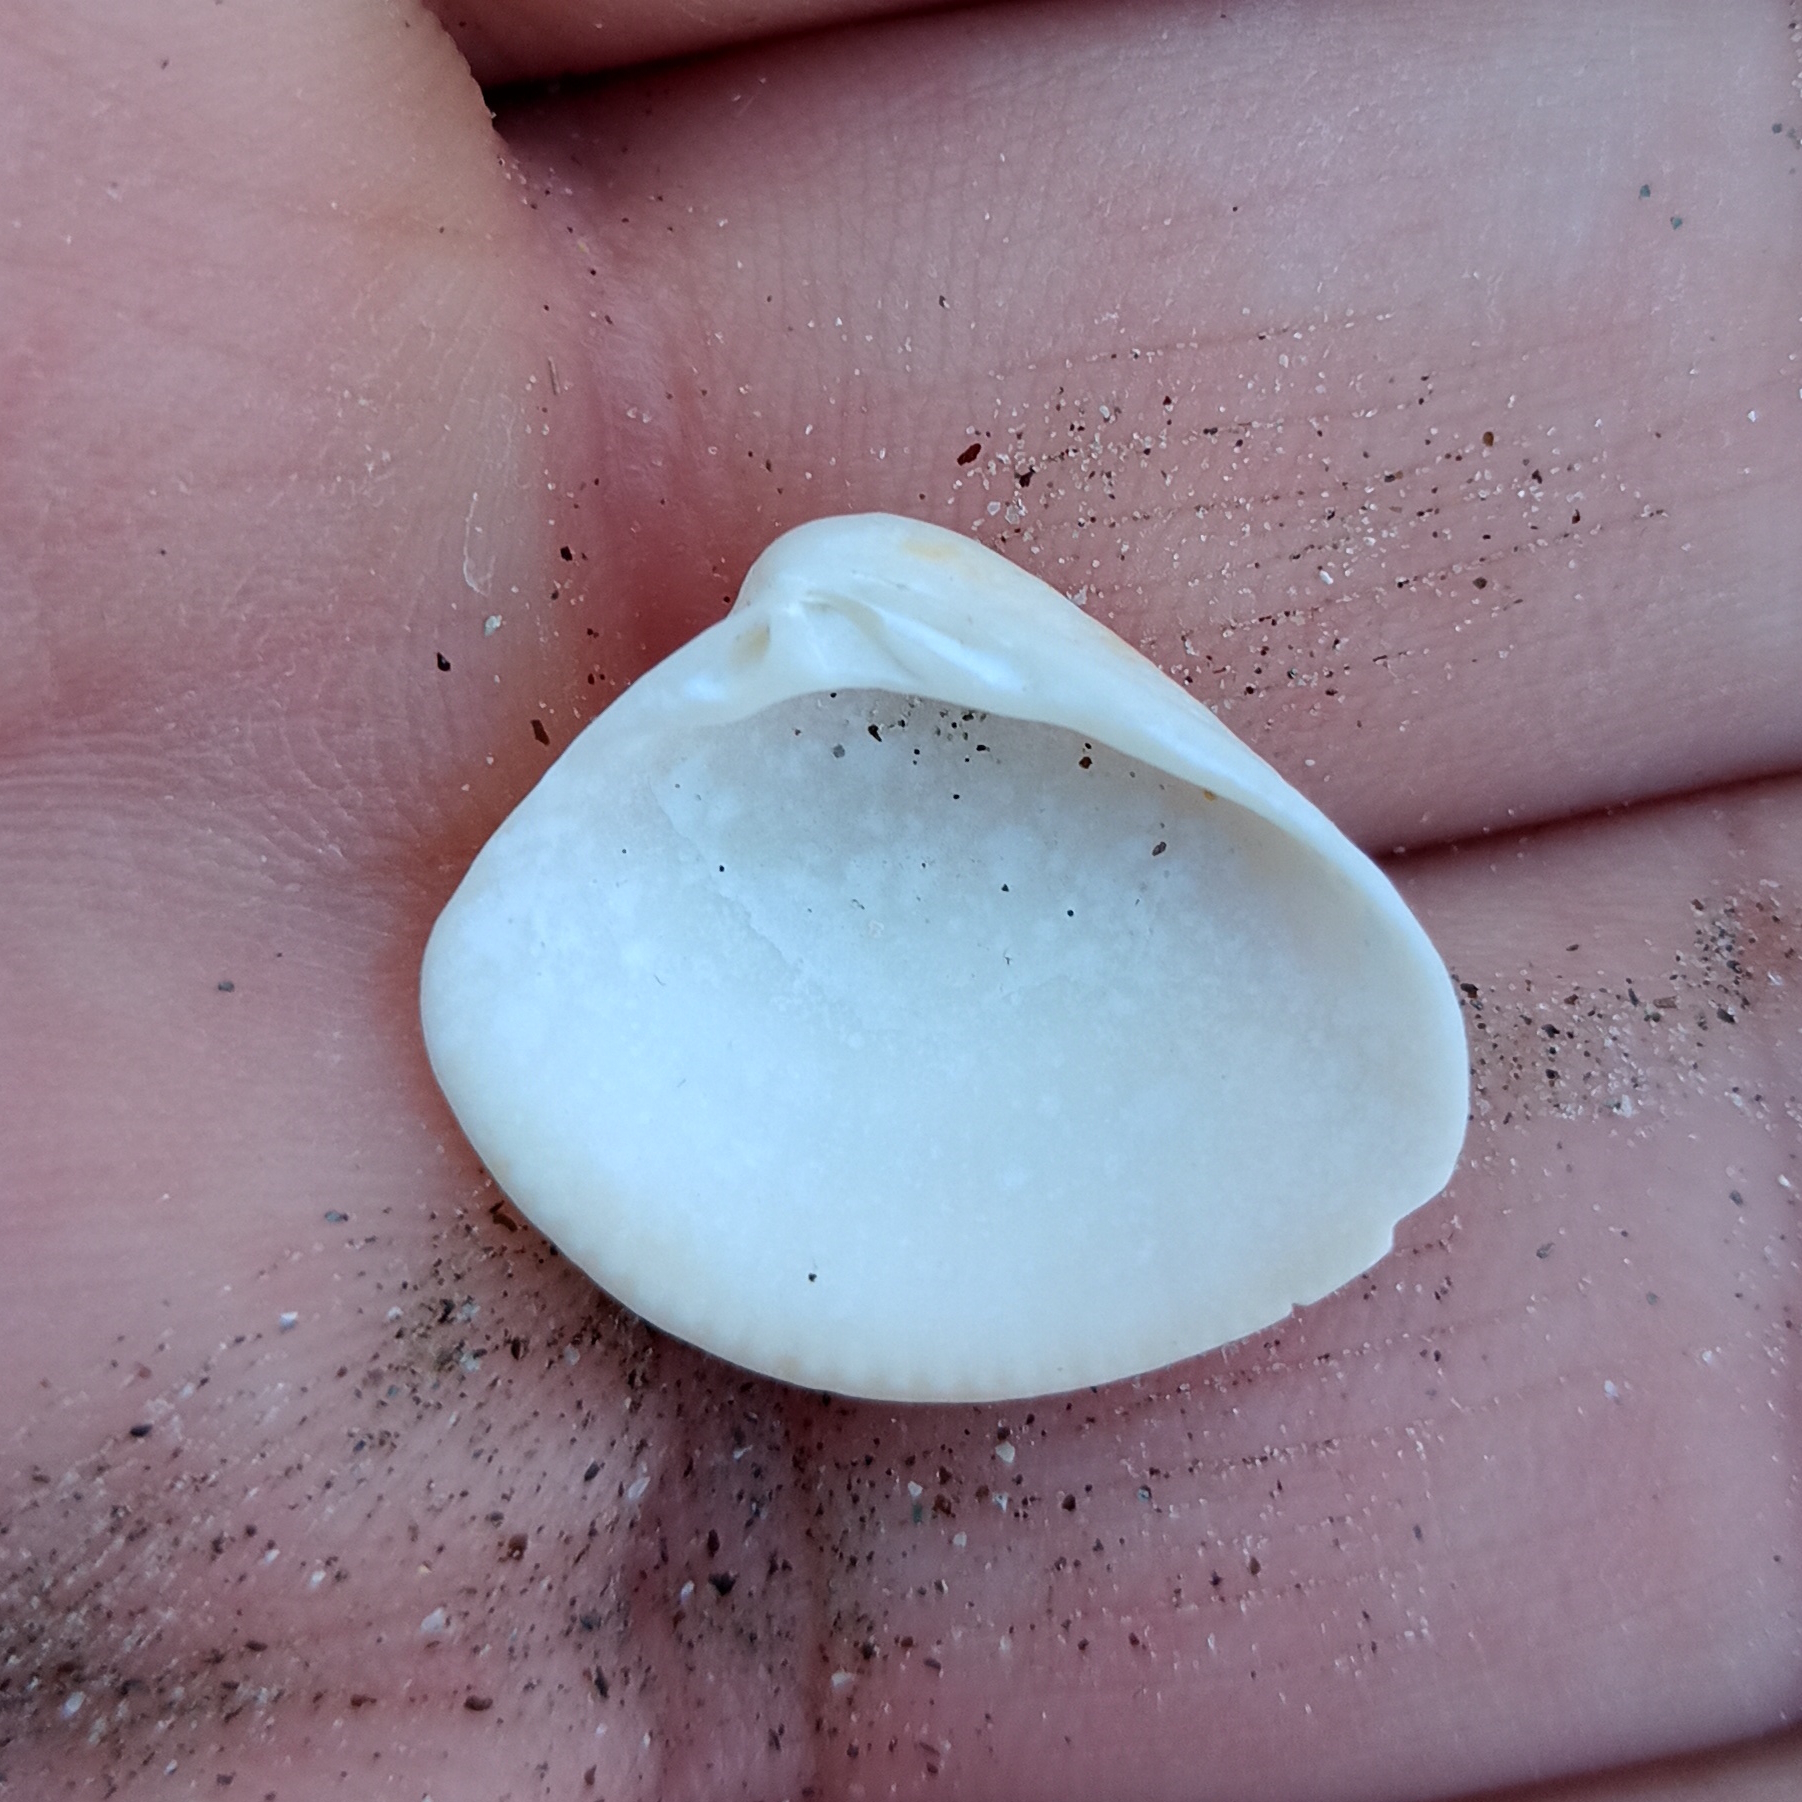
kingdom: Animalia
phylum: Mollusca
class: Bivalvia
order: Venerida
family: Veneridae
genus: Anomalocardia
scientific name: Anomalocardia flexuosa
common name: Carib pointed venus
